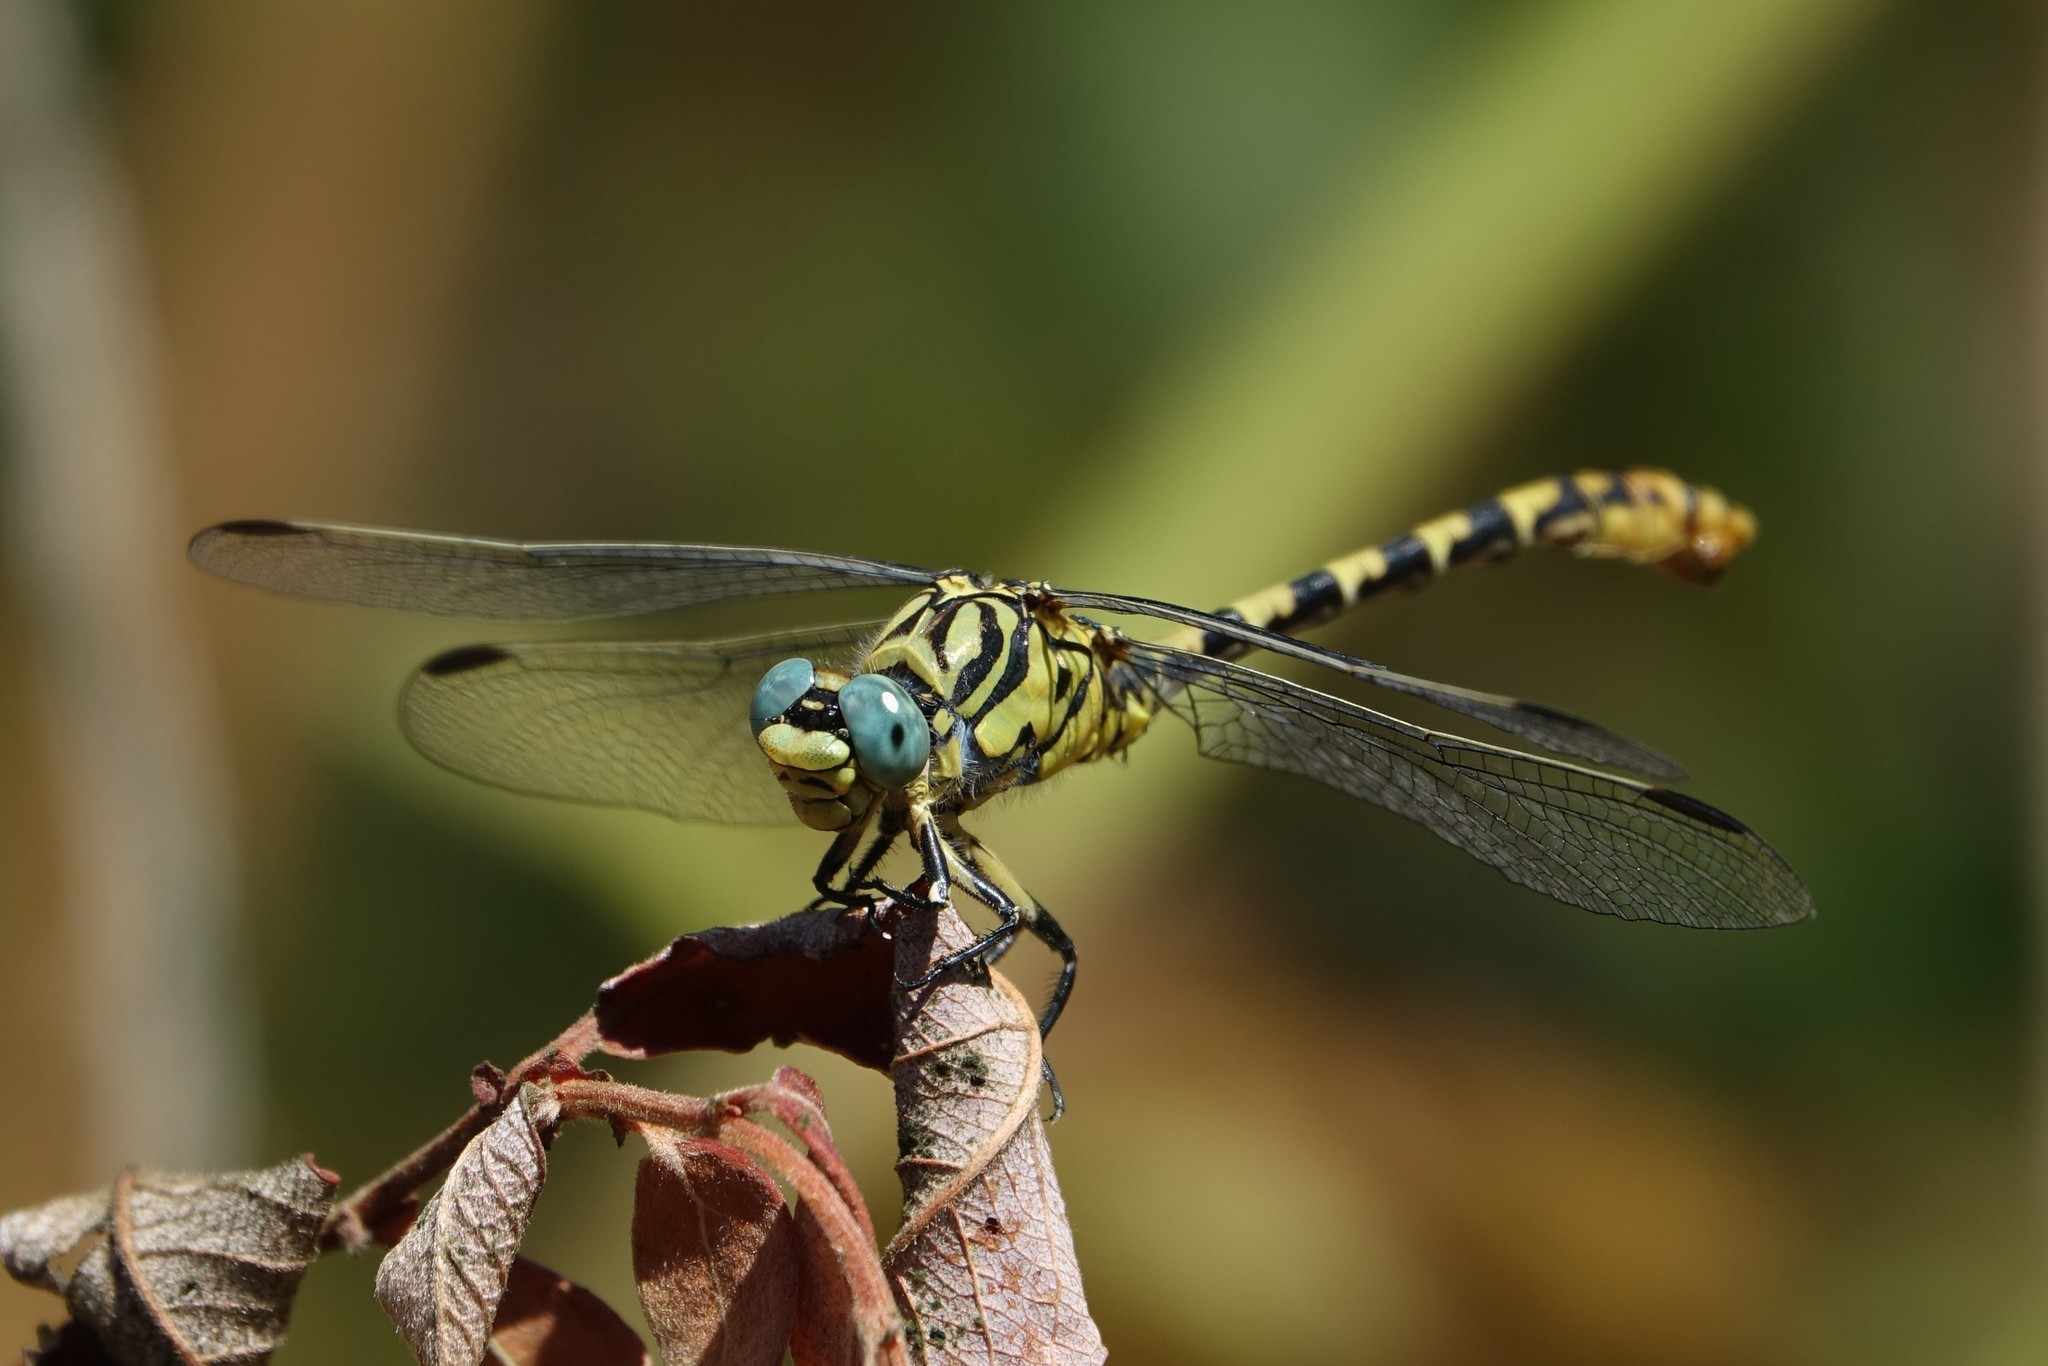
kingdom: Animalia
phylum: Arthropoda
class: Insecta
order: Odonata
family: Gomphidae
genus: Onychogomphus
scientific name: Onychogomphus forcipatus
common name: Small pincertail
